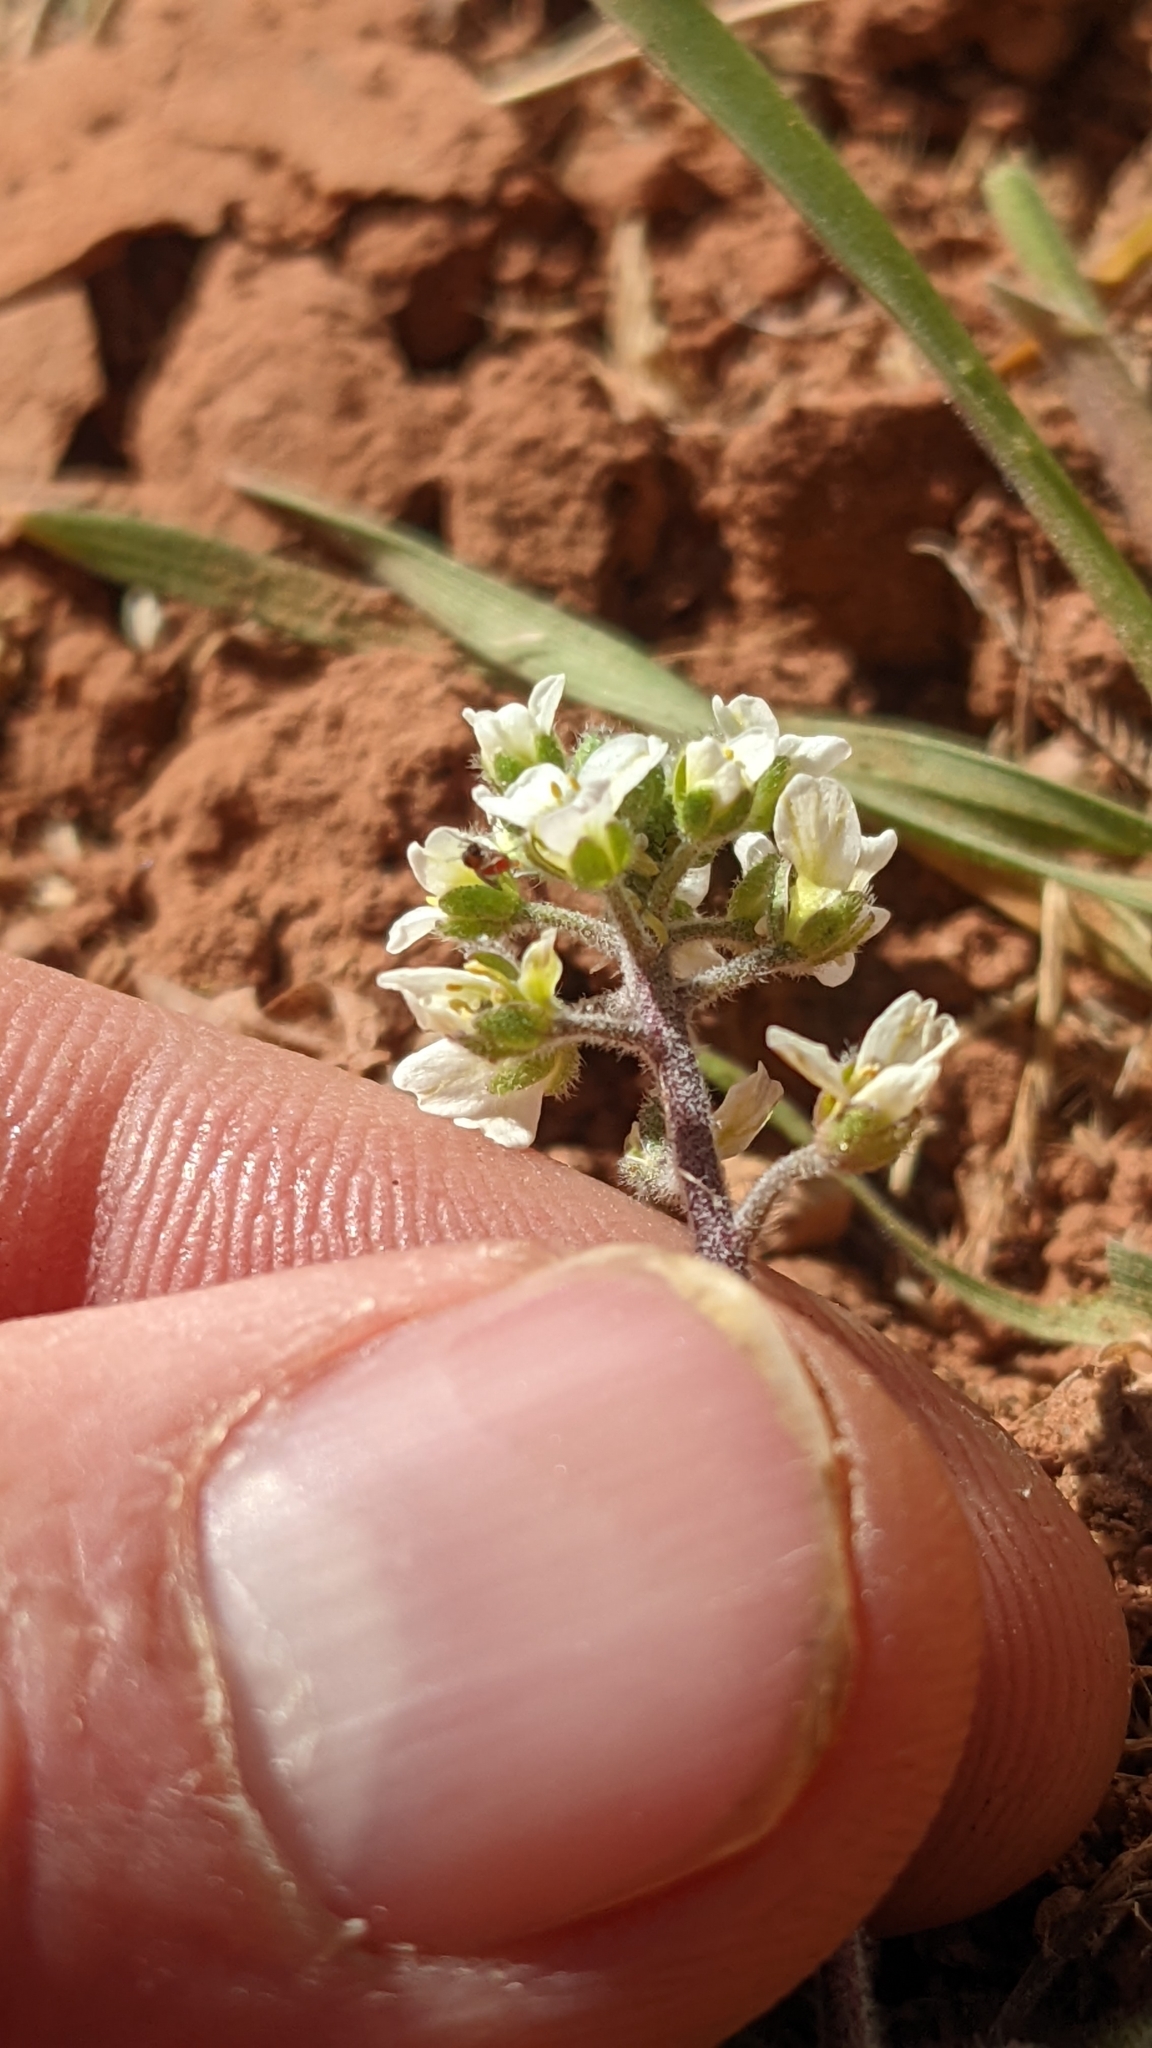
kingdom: Plantae
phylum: Tracheophyta
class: Magnoliopsida
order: Brassicales
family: Brassicaceae
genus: Tomostima
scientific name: Tomostima cuneifolia
